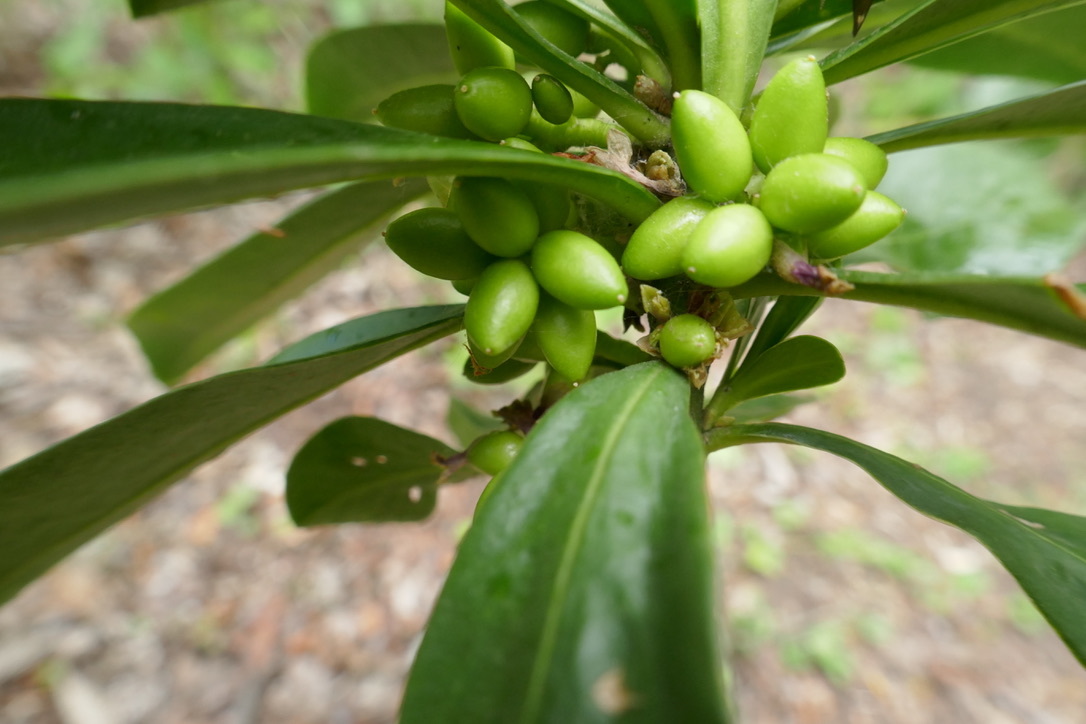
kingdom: Plantae
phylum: Tracheophyta
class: Magnoliopsida
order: Malvales
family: Thymelaeaceae
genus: Daphne
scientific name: Daphne laureola
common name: Spurge-laurel
